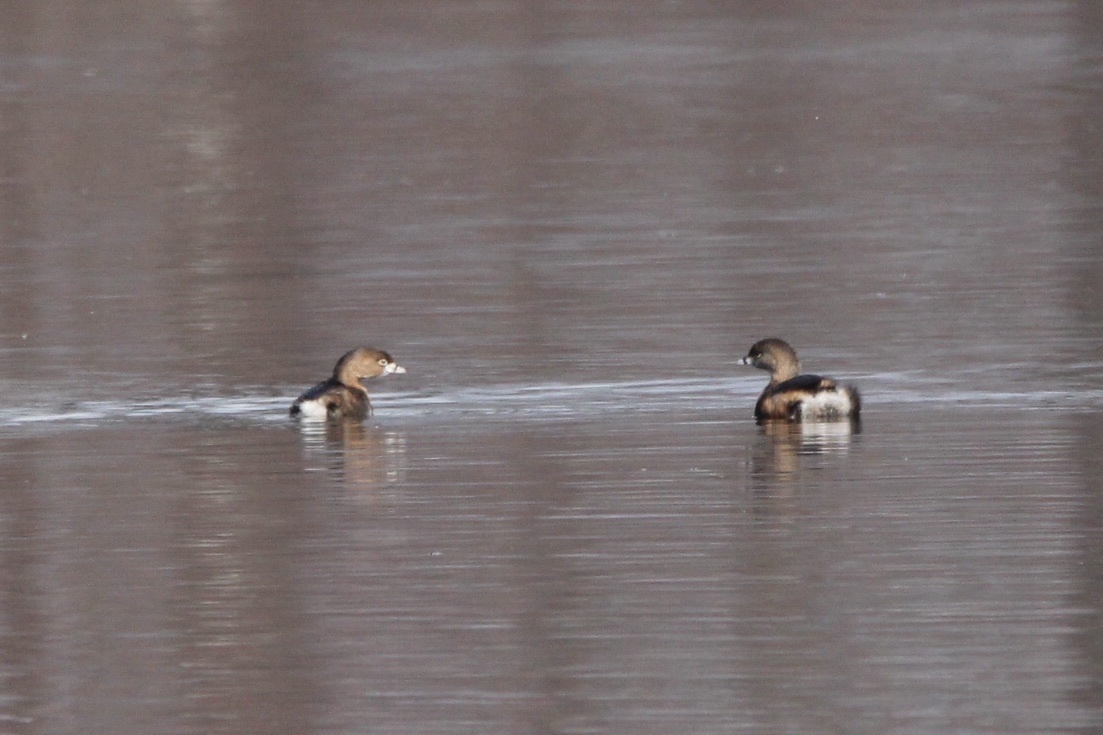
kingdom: Animalia
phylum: Chordata
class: Aves
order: Podicipediformes
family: Podicipedidae
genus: Podilymbus
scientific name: Podilymbus podiceps
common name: Pied-billed grebe
